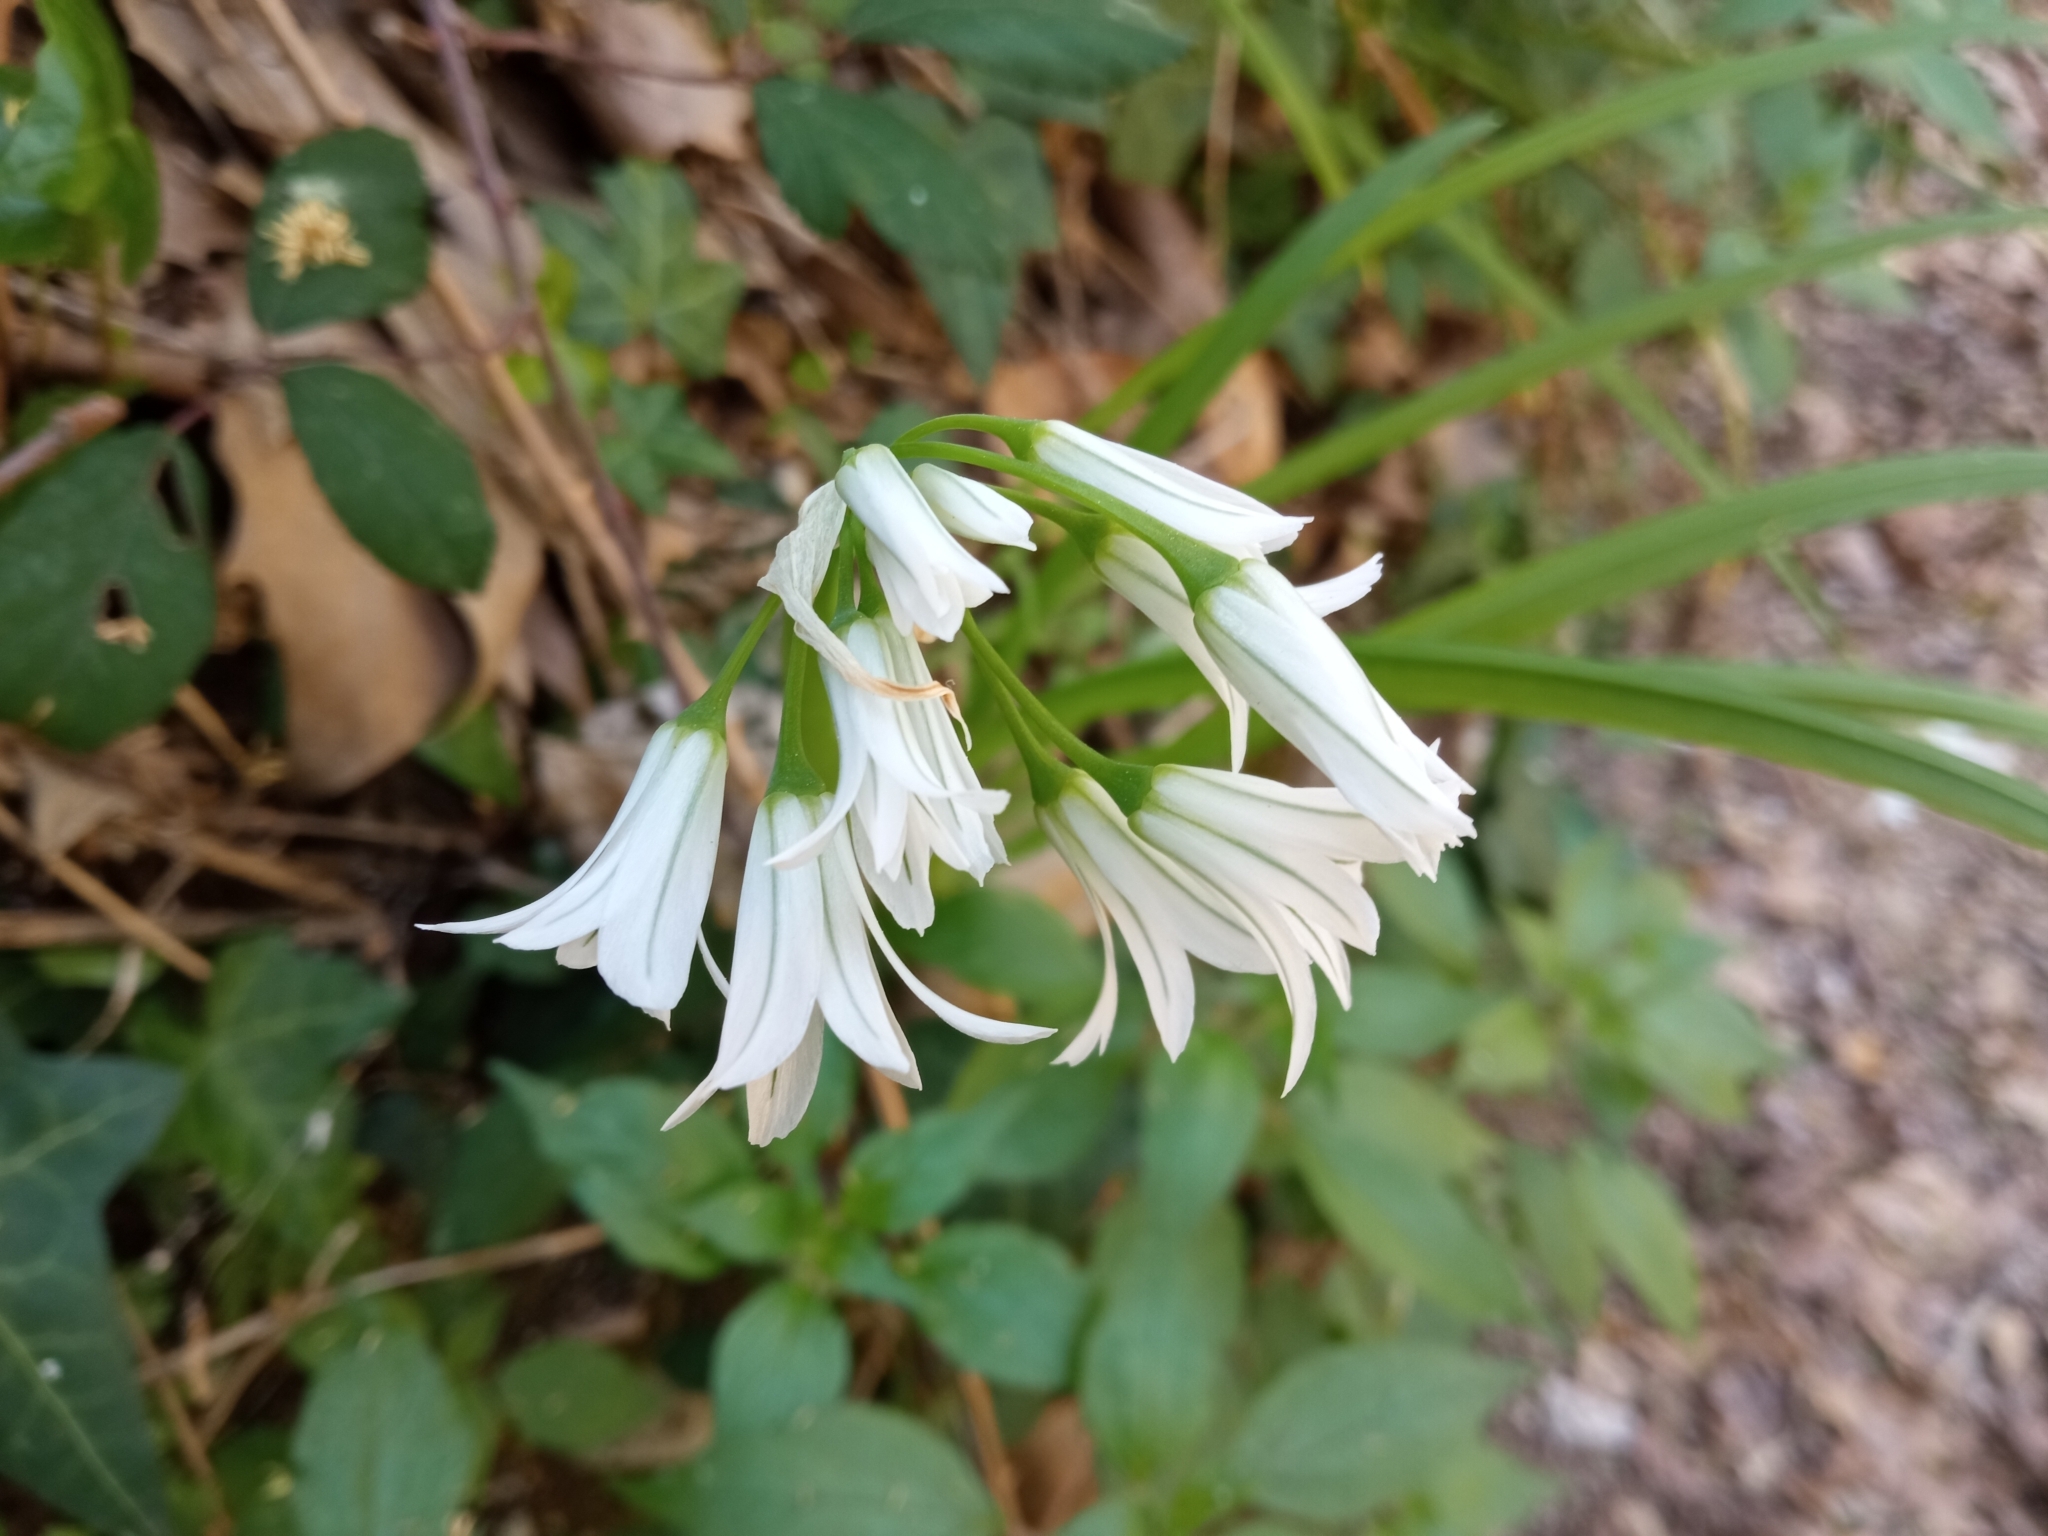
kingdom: Plantae
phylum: Tracheophyta
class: Liliopsida
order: Asparagales
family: Amaryllidaceae
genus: Allium
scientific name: Allium triquetrum
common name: Three-cornered garlic
